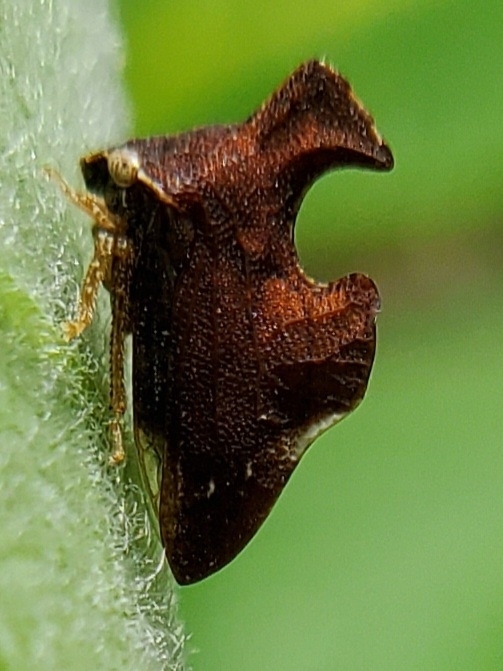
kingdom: Animalia
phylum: Arthropoda
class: Insecta
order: Hemiptera
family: Membracidae
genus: Entylia
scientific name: Entylia carinata
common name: Keeled treehopper
